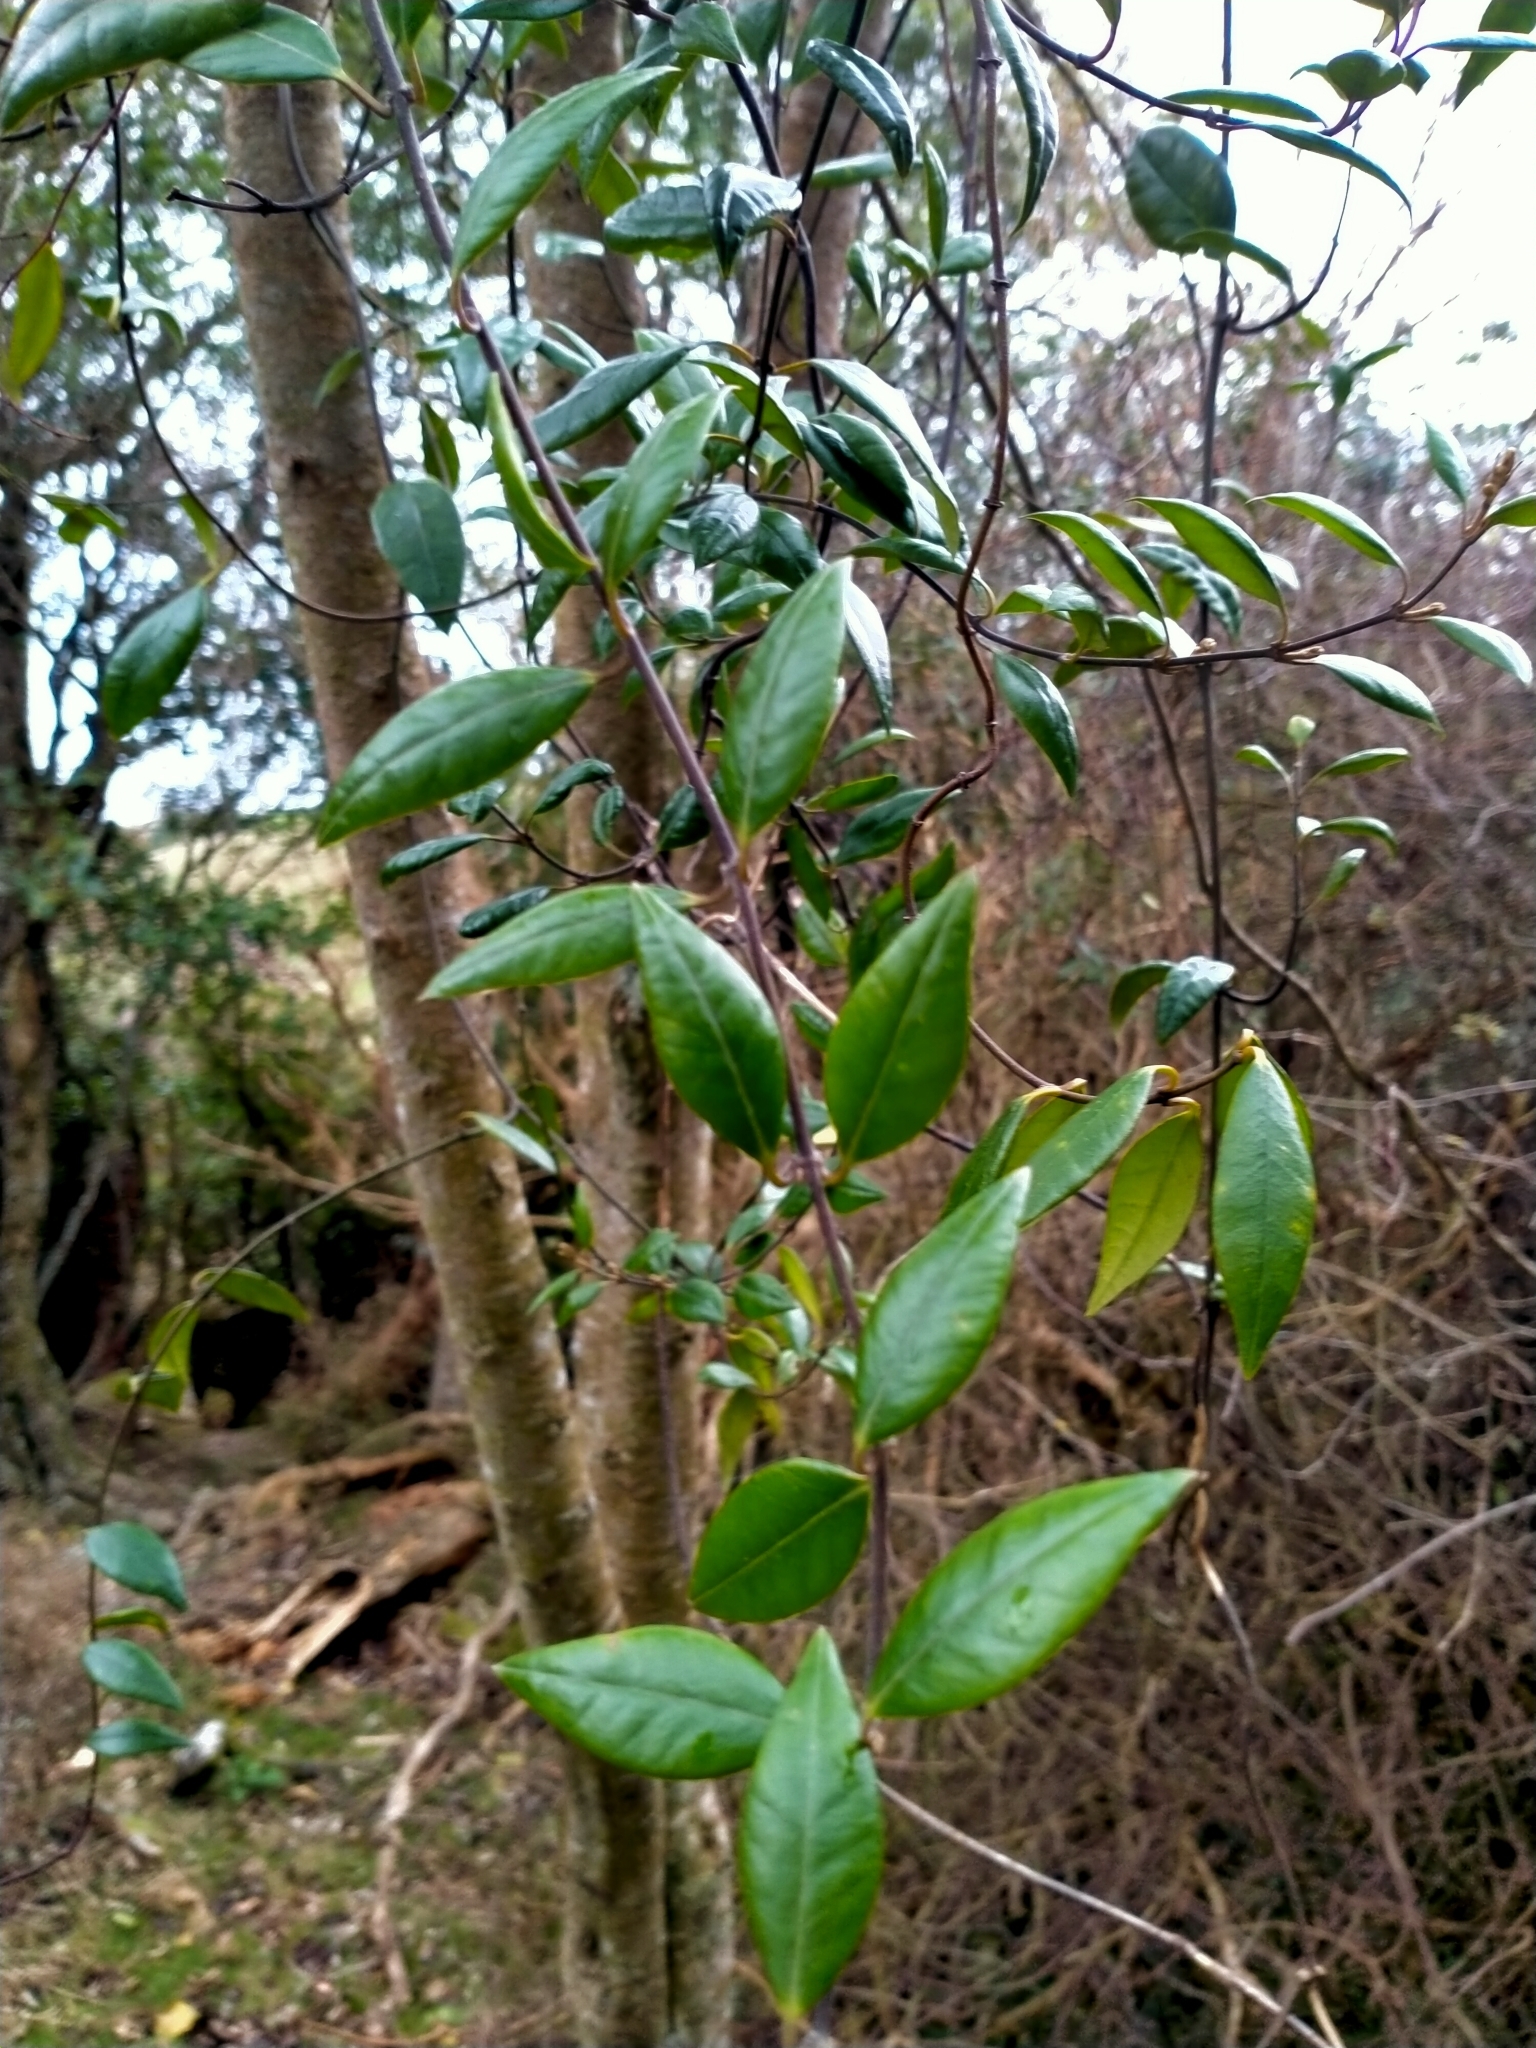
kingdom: Plantae
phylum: Tracheophyta
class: Magnoliopsida
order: Gentianales
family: Apocynaceae
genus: Parsonsia
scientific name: Parsonsia heterophylla
